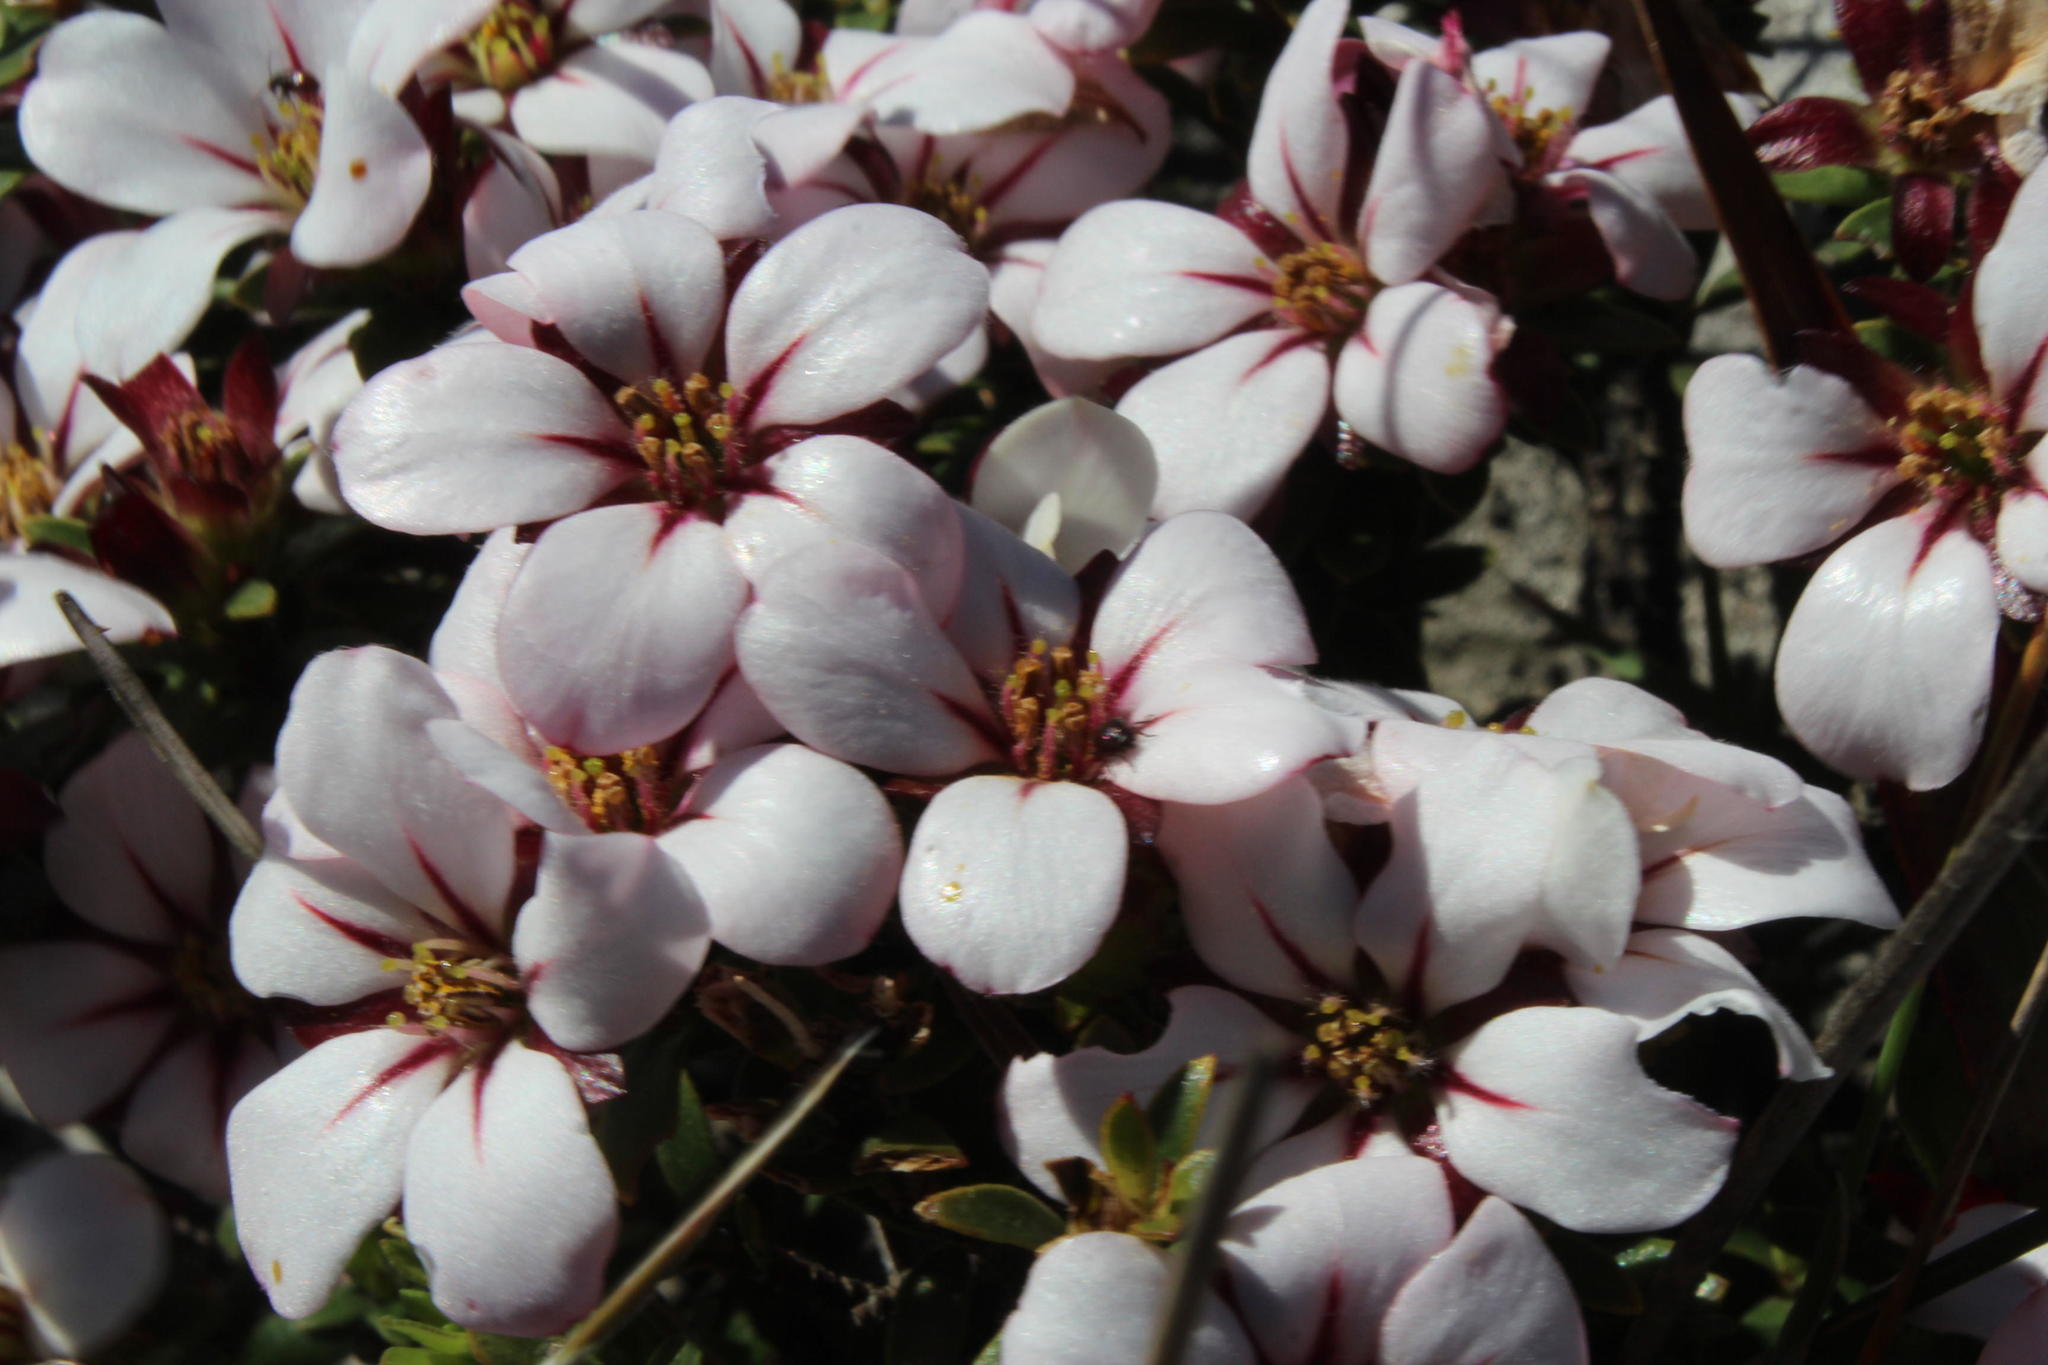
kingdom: Plantae
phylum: Tracheophyta
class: Magnoliopsida
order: Sapindales
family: Rutaceae
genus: Adenandra
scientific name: Adenandra uniflora
